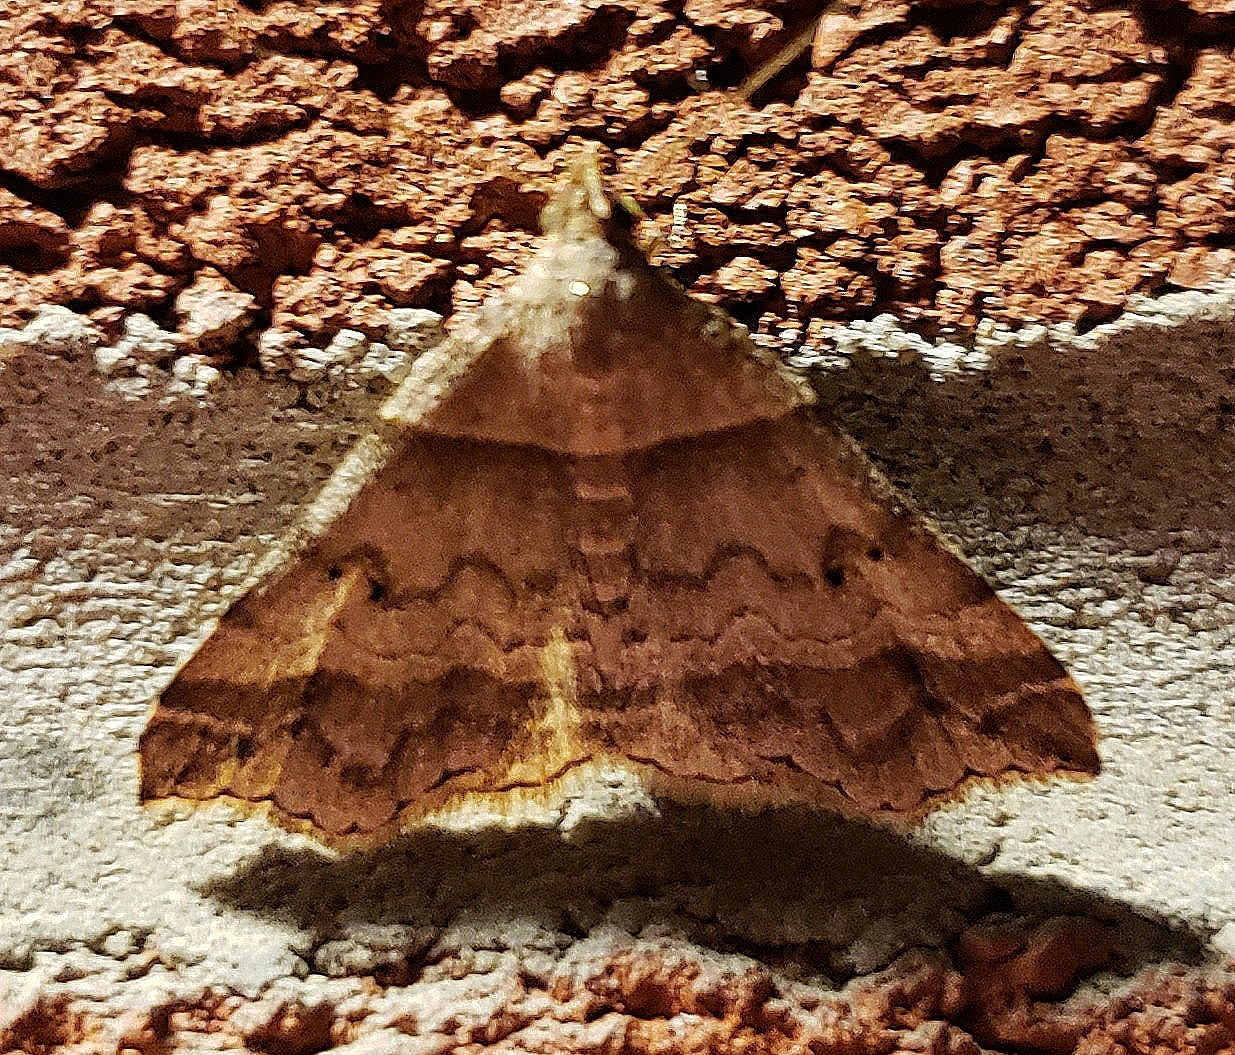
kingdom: Animalia
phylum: Arthropoda
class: Insecta
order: Lepidoptera
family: Erebidae
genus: Phaeolita
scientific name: Phaeolita pyramusalis
